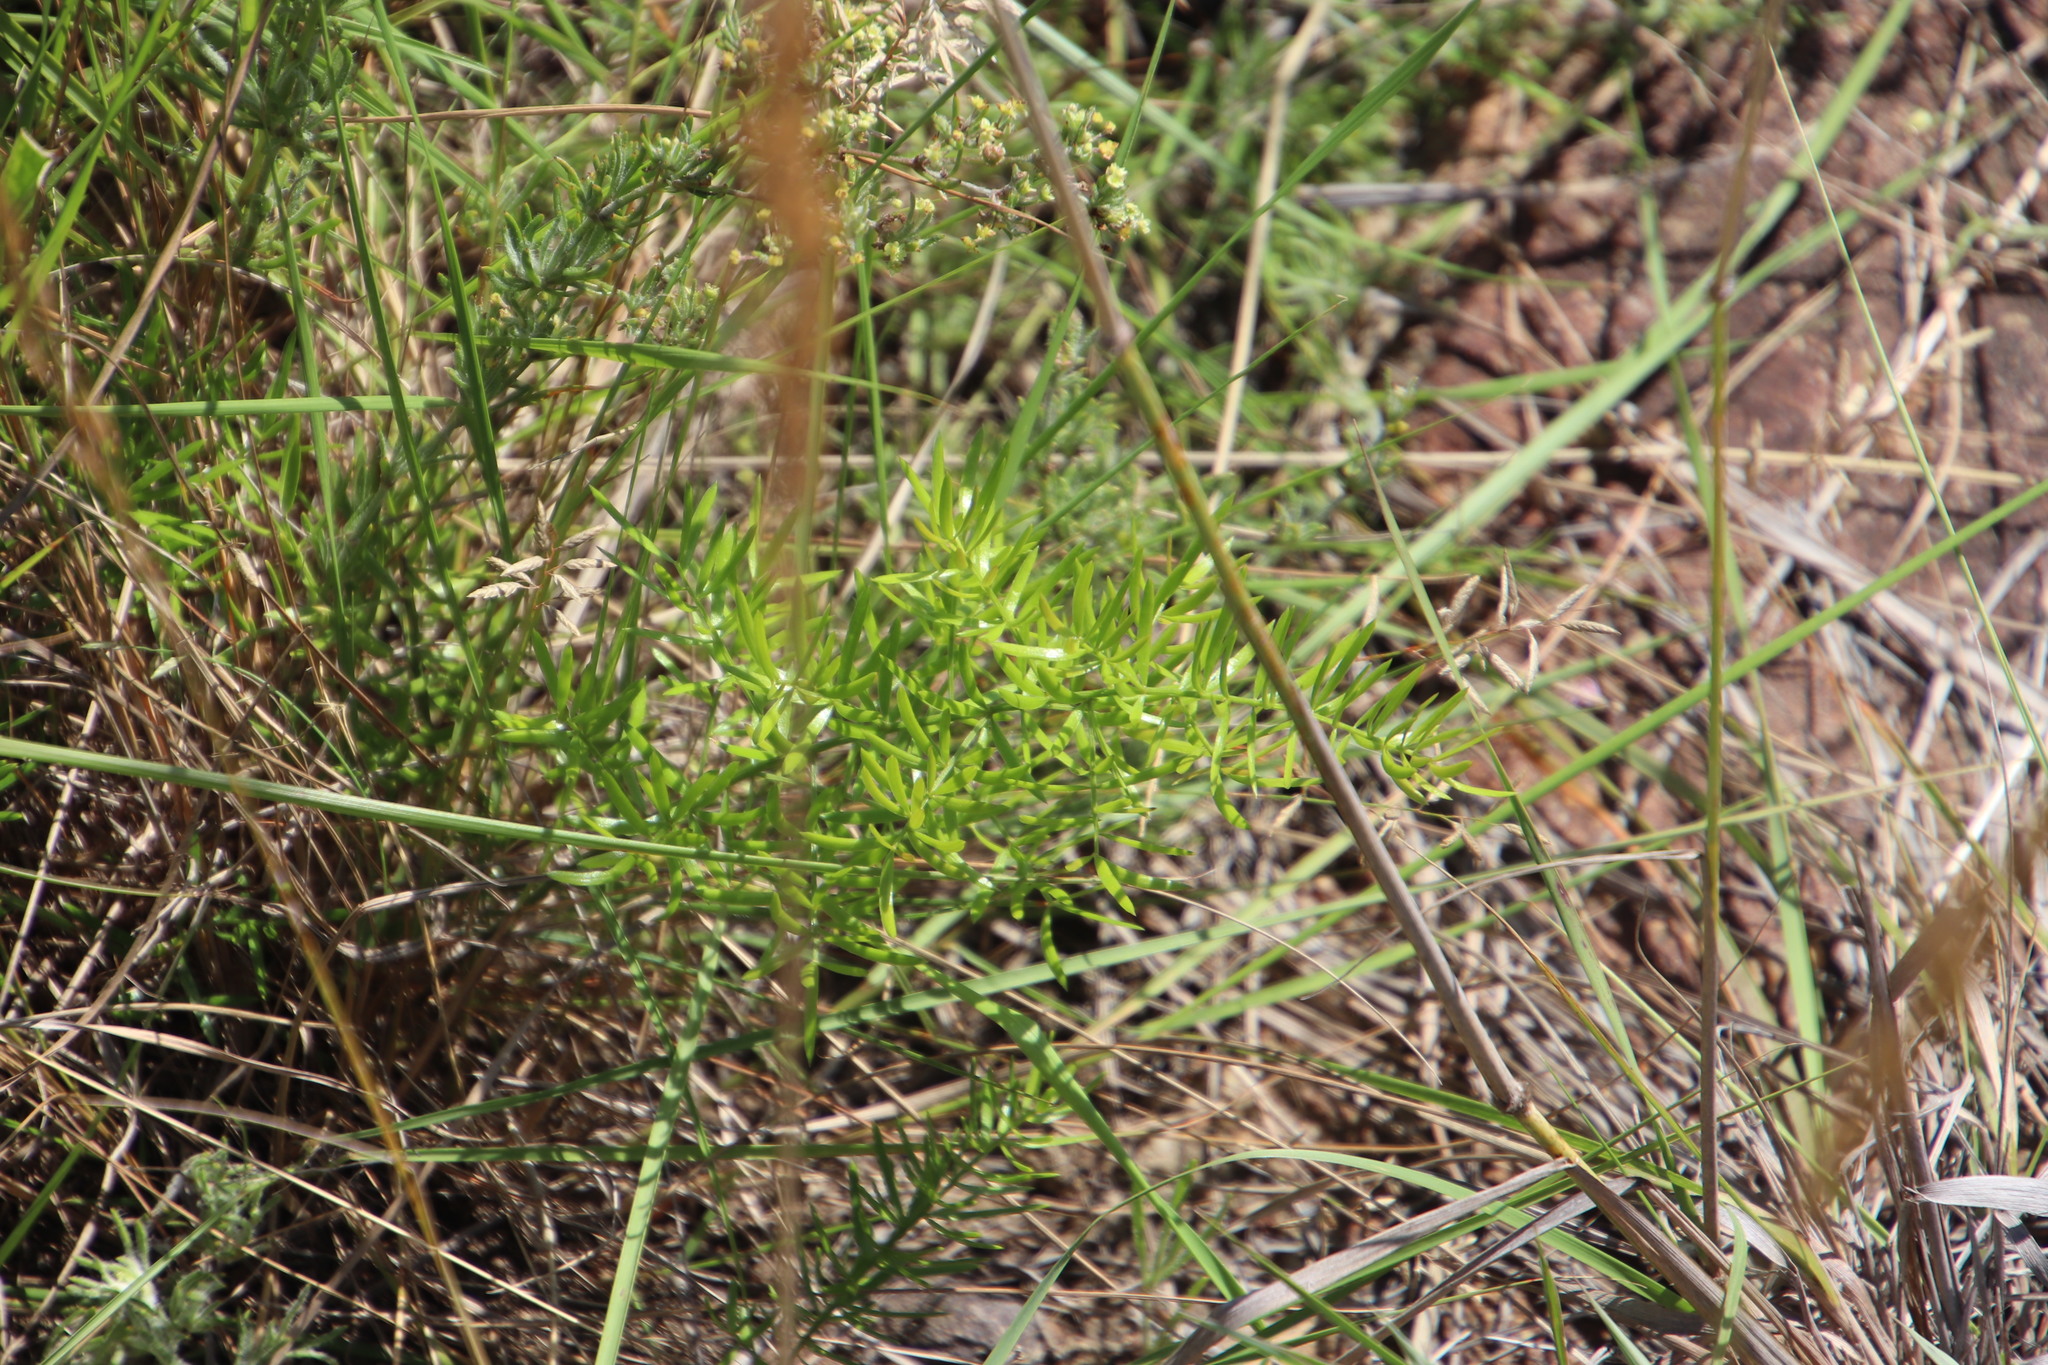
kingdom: Plantae
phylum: Tracheophyta
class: Liliopsida
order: Asparagales
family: Asparagaceae
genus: Asparagus
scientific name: Asparagus densiflorus
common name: Asparagus fern
